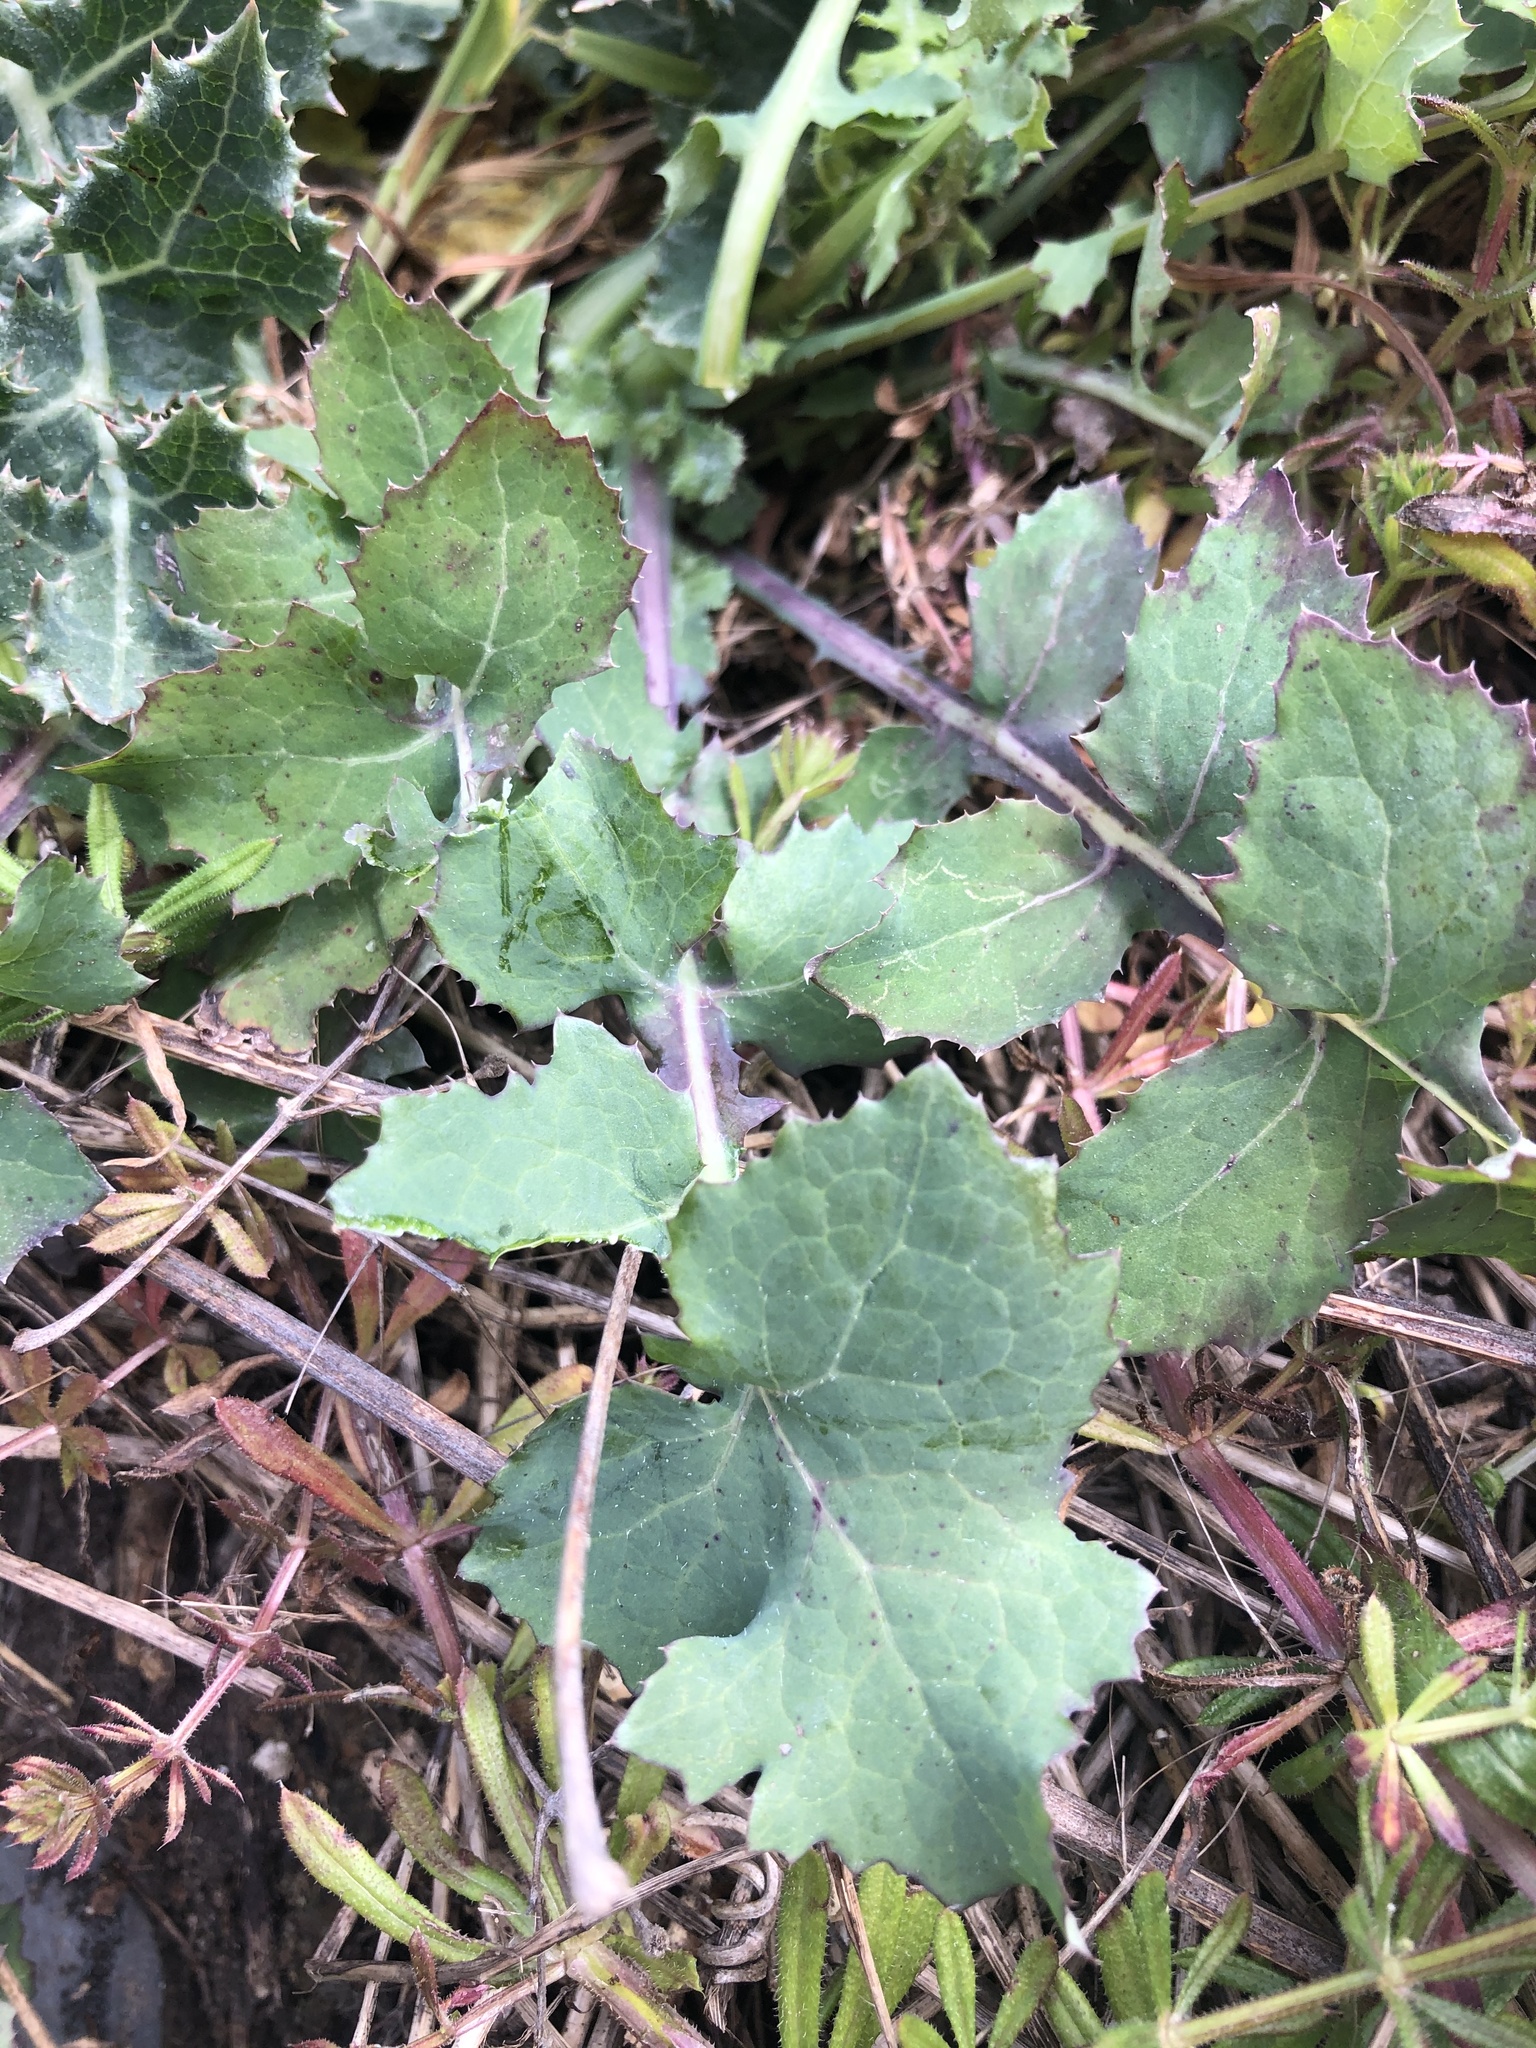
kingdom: Plantae
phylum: Tracheophyta
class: Magnoliopsida
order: Asterales
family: Asteraceae
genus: Sonchus
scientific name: Sonchus oleraceus
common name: Common sowthistle
